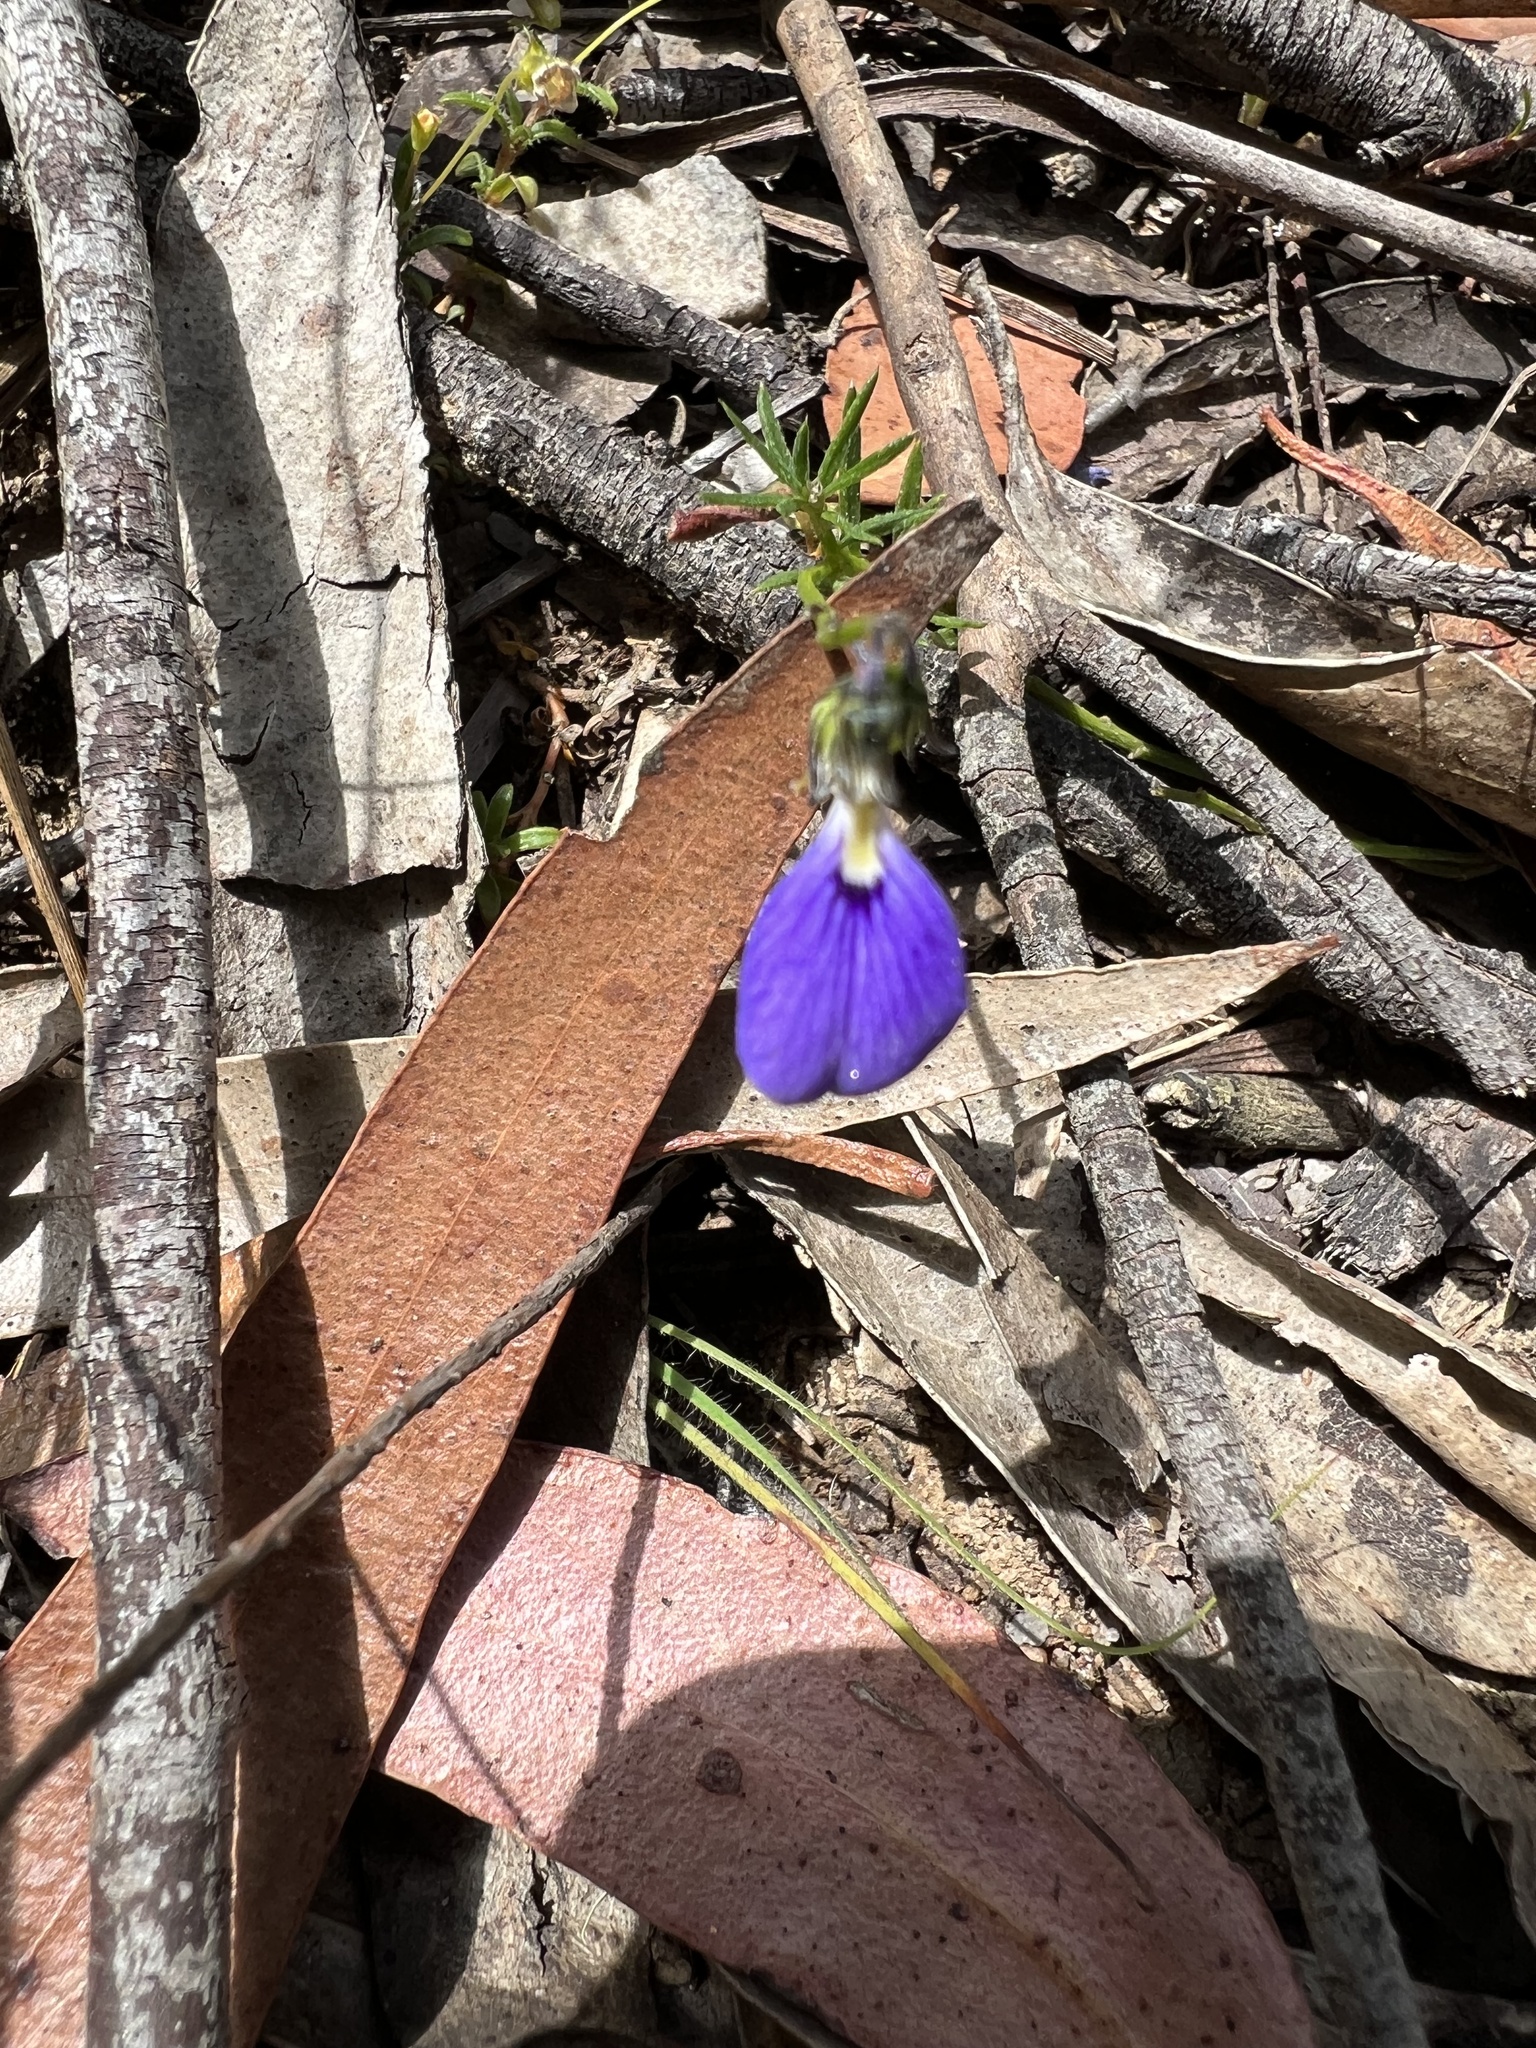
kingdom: Plantae
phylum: Tracheophyta
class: Magnoliopsida
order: Malpighiales
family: Violaceae
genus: Pigea
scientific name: Pigea monopetala
